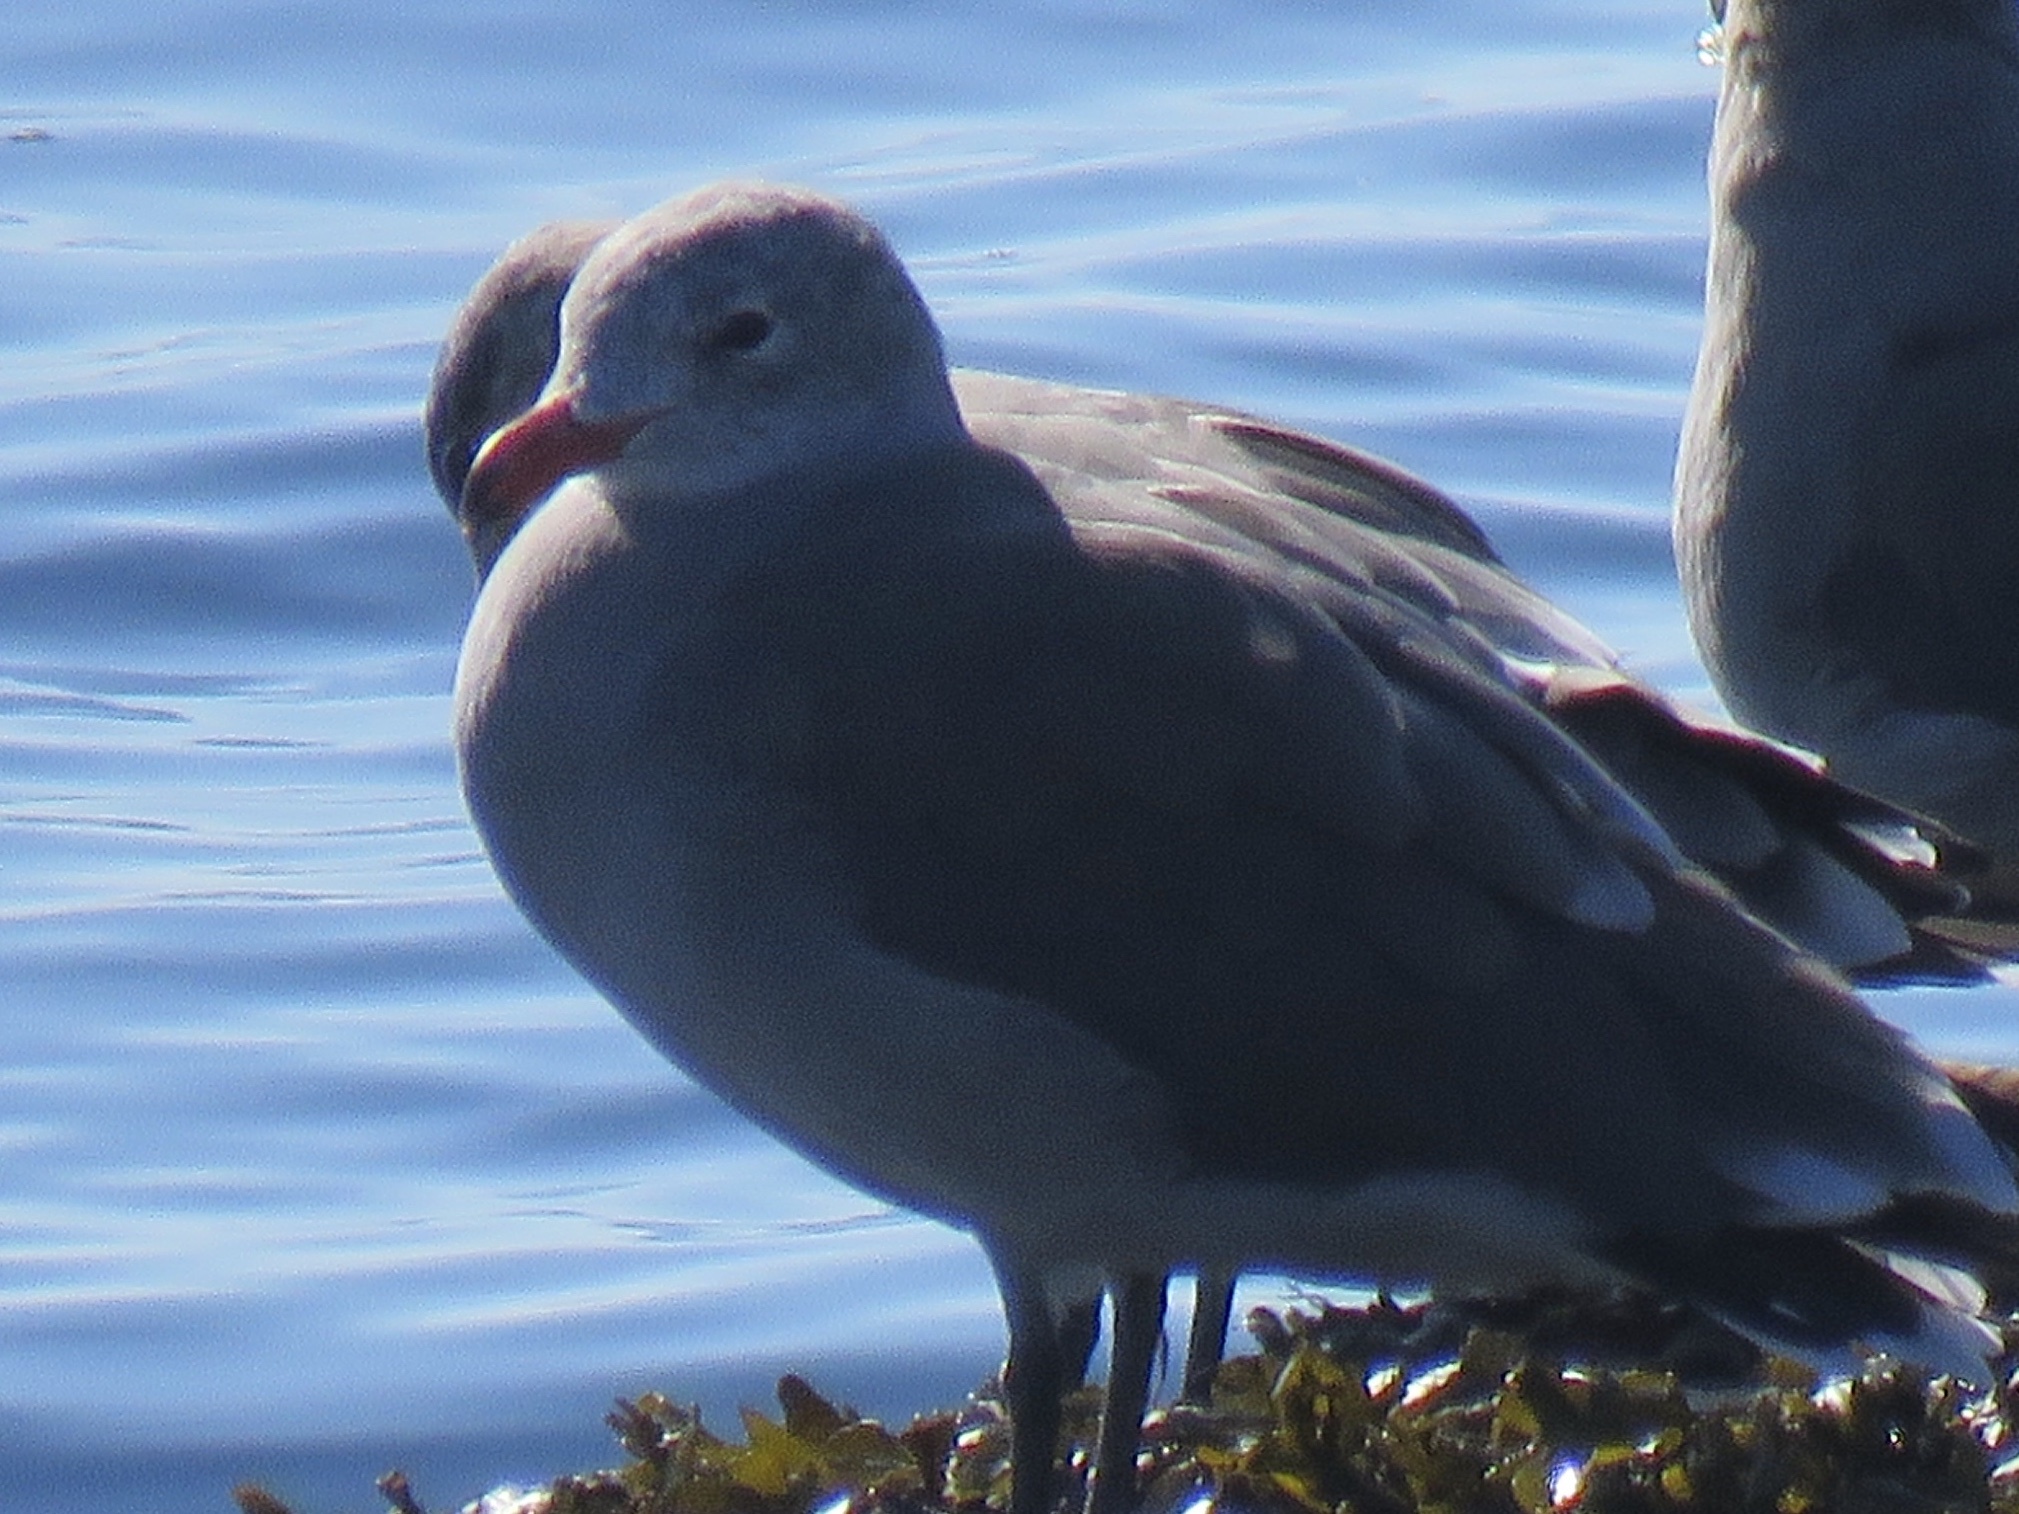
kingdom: Animalia
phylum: Chordata
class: Aves
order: Charadriiformes
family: Laridae
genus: Larus
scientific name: Larus heermanni
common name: Heermann's gull
